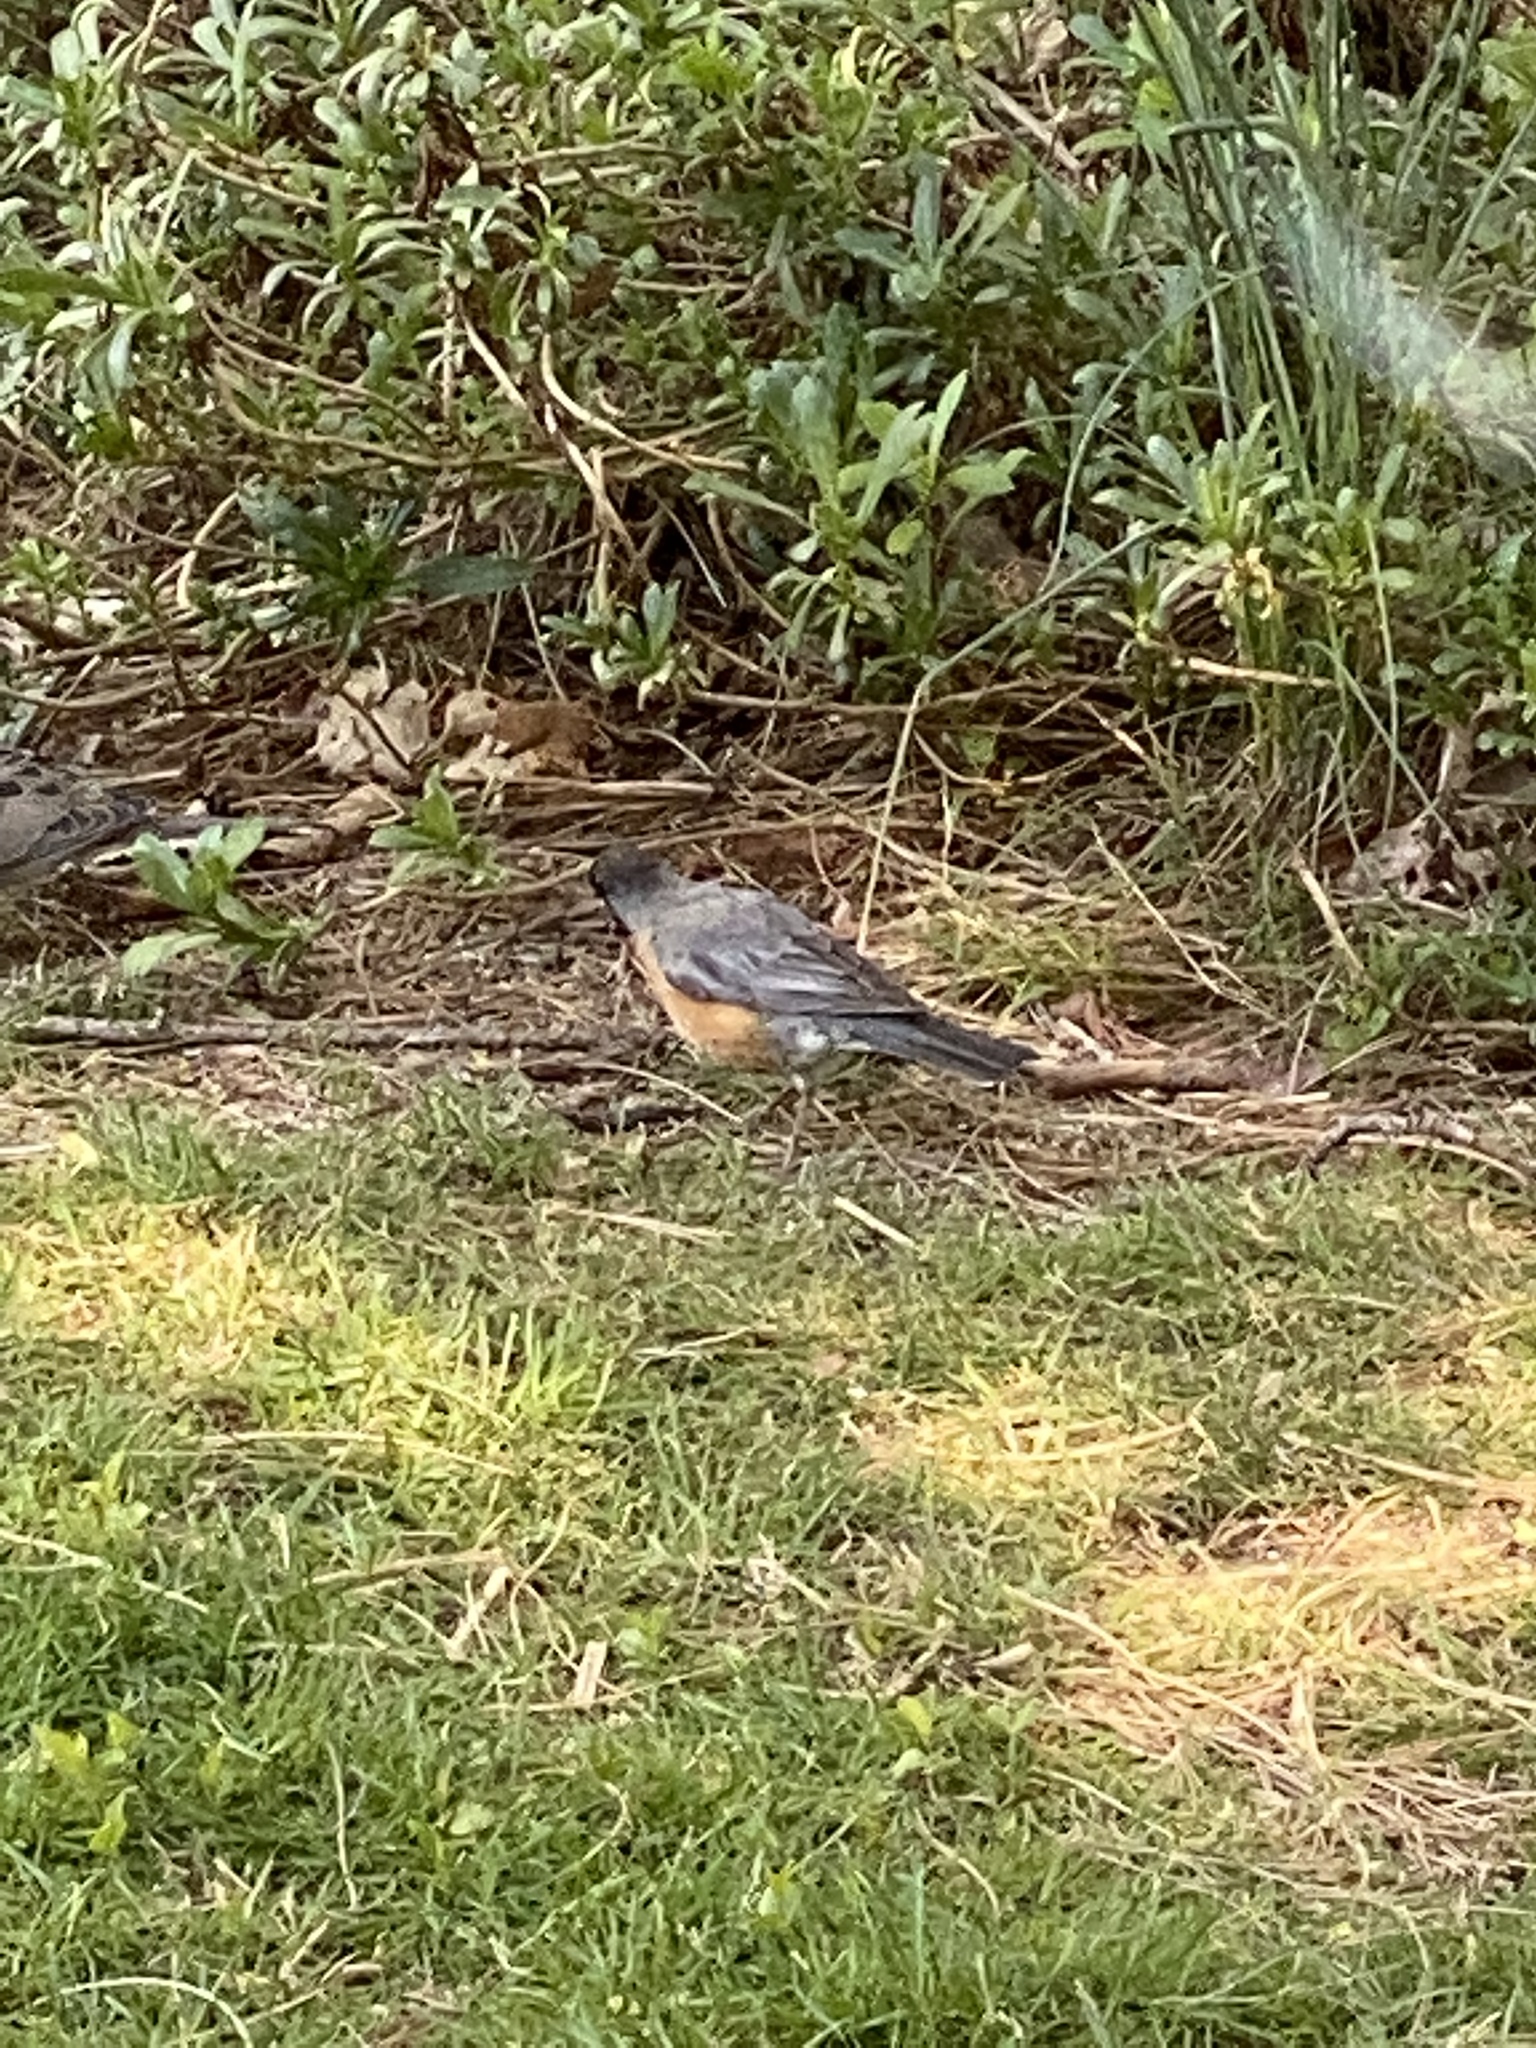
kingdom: Animalia
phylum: Chordata
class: Aves
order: Passeriformes
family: Turdidae
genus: Turdus
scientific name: Turdus migratorius
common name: American robin
